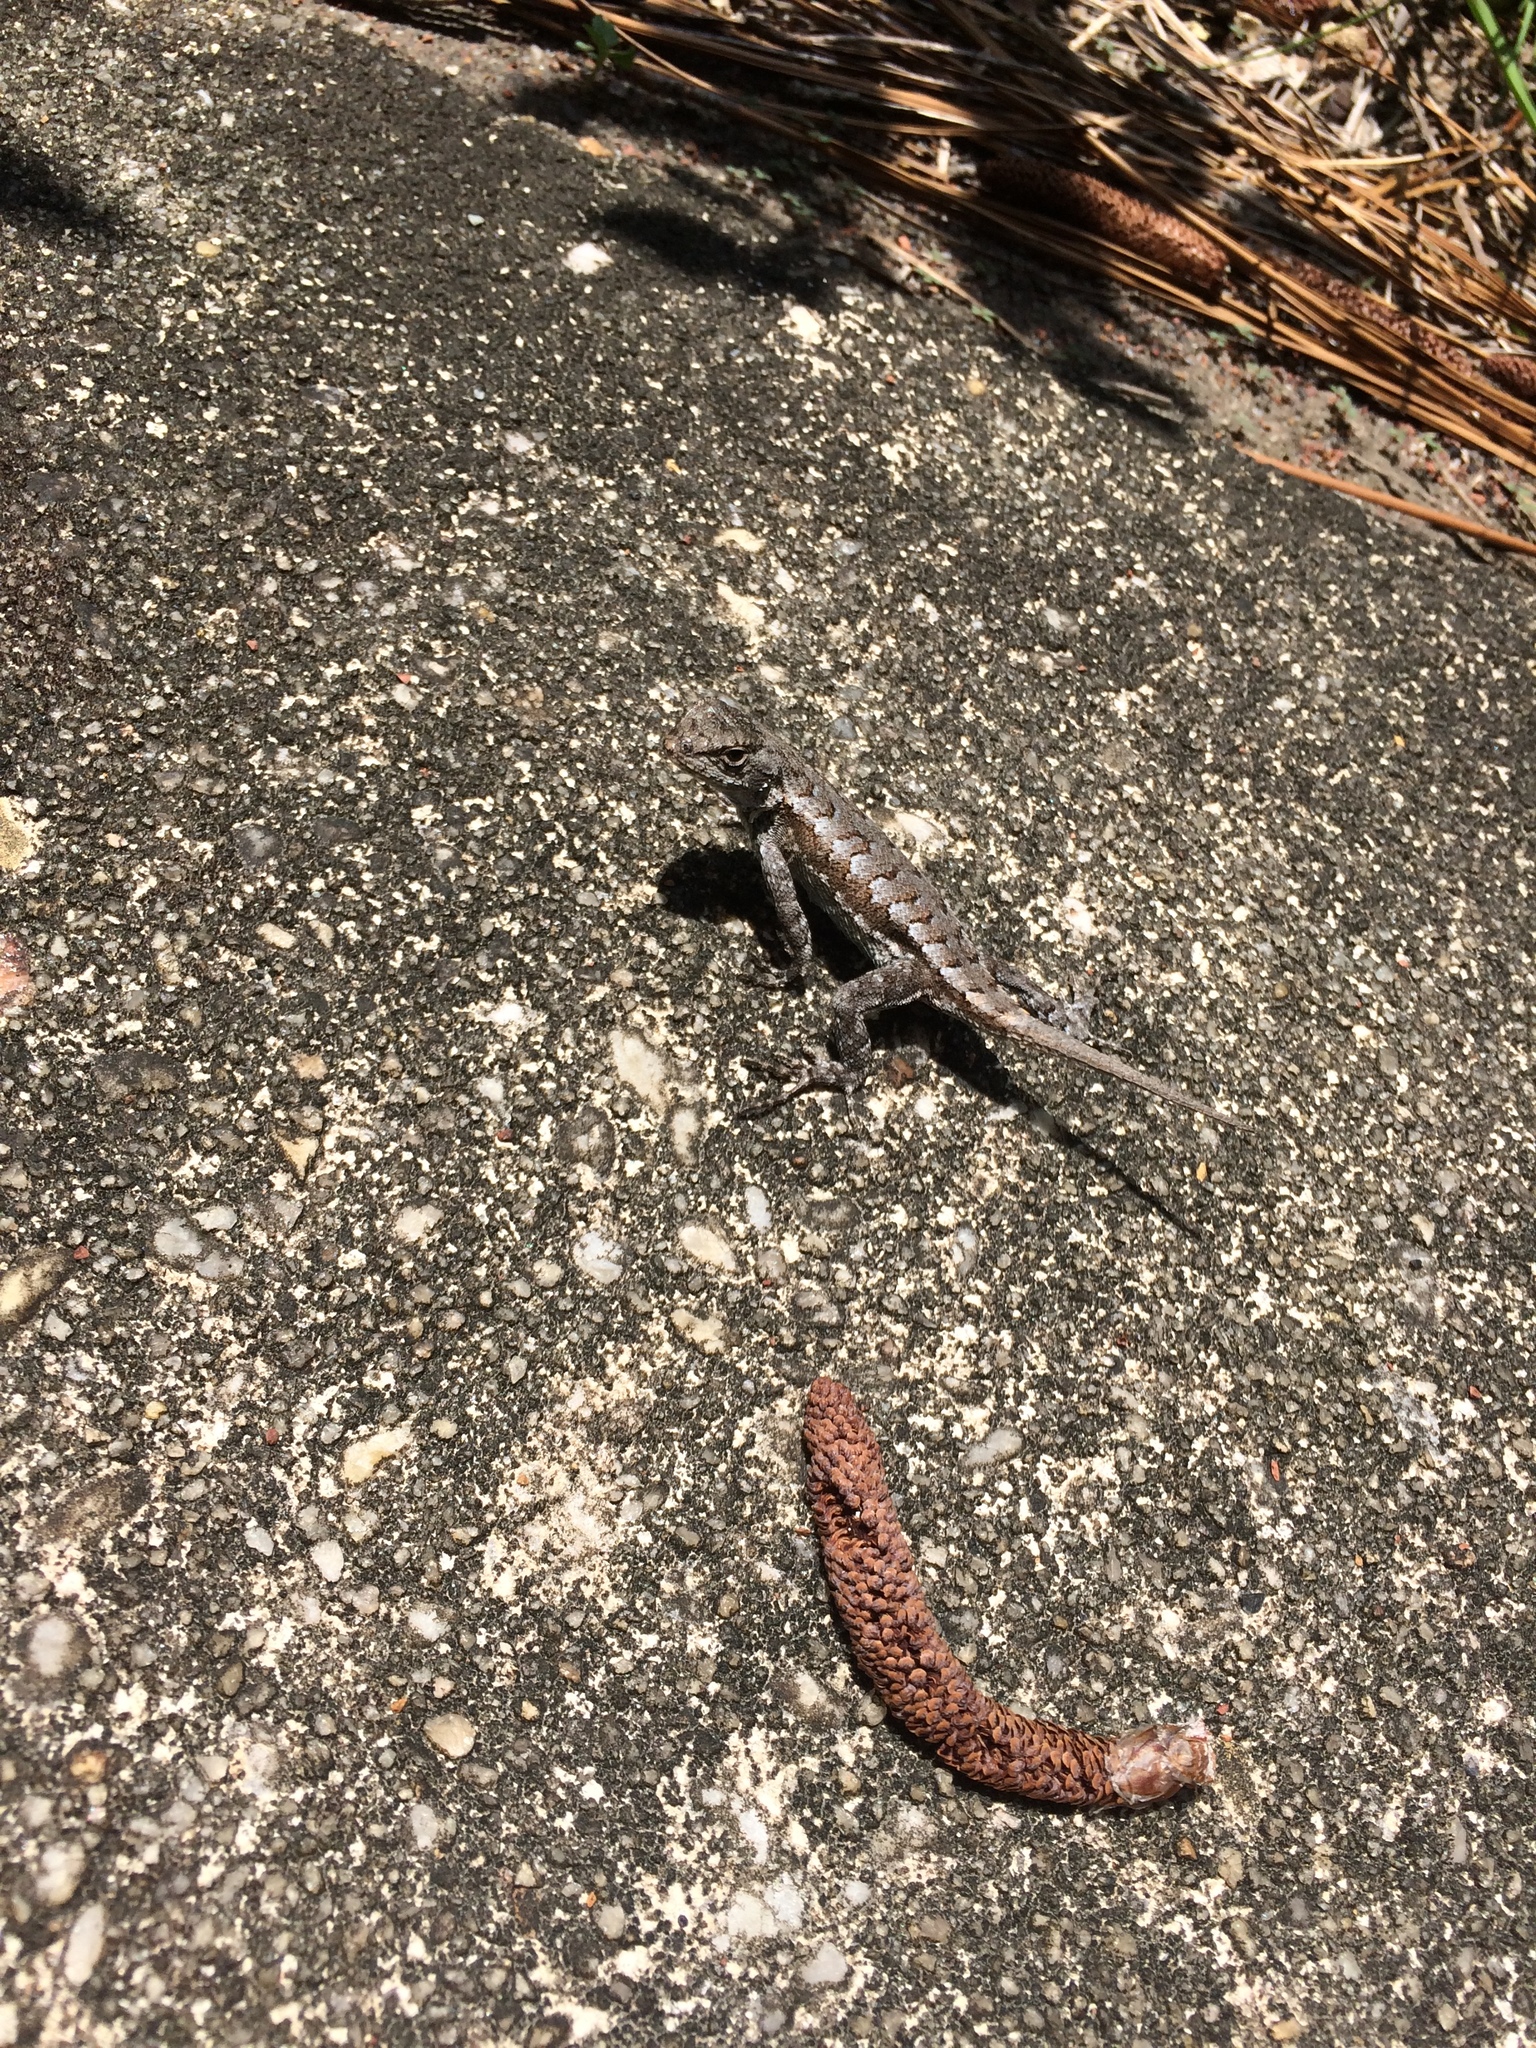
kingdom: Animalia
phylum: Chordata
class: Squamata
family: Phrynosomatidae
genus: Sceloporus
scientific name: Sceloporus undulatus
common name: Eastern fence lizard
